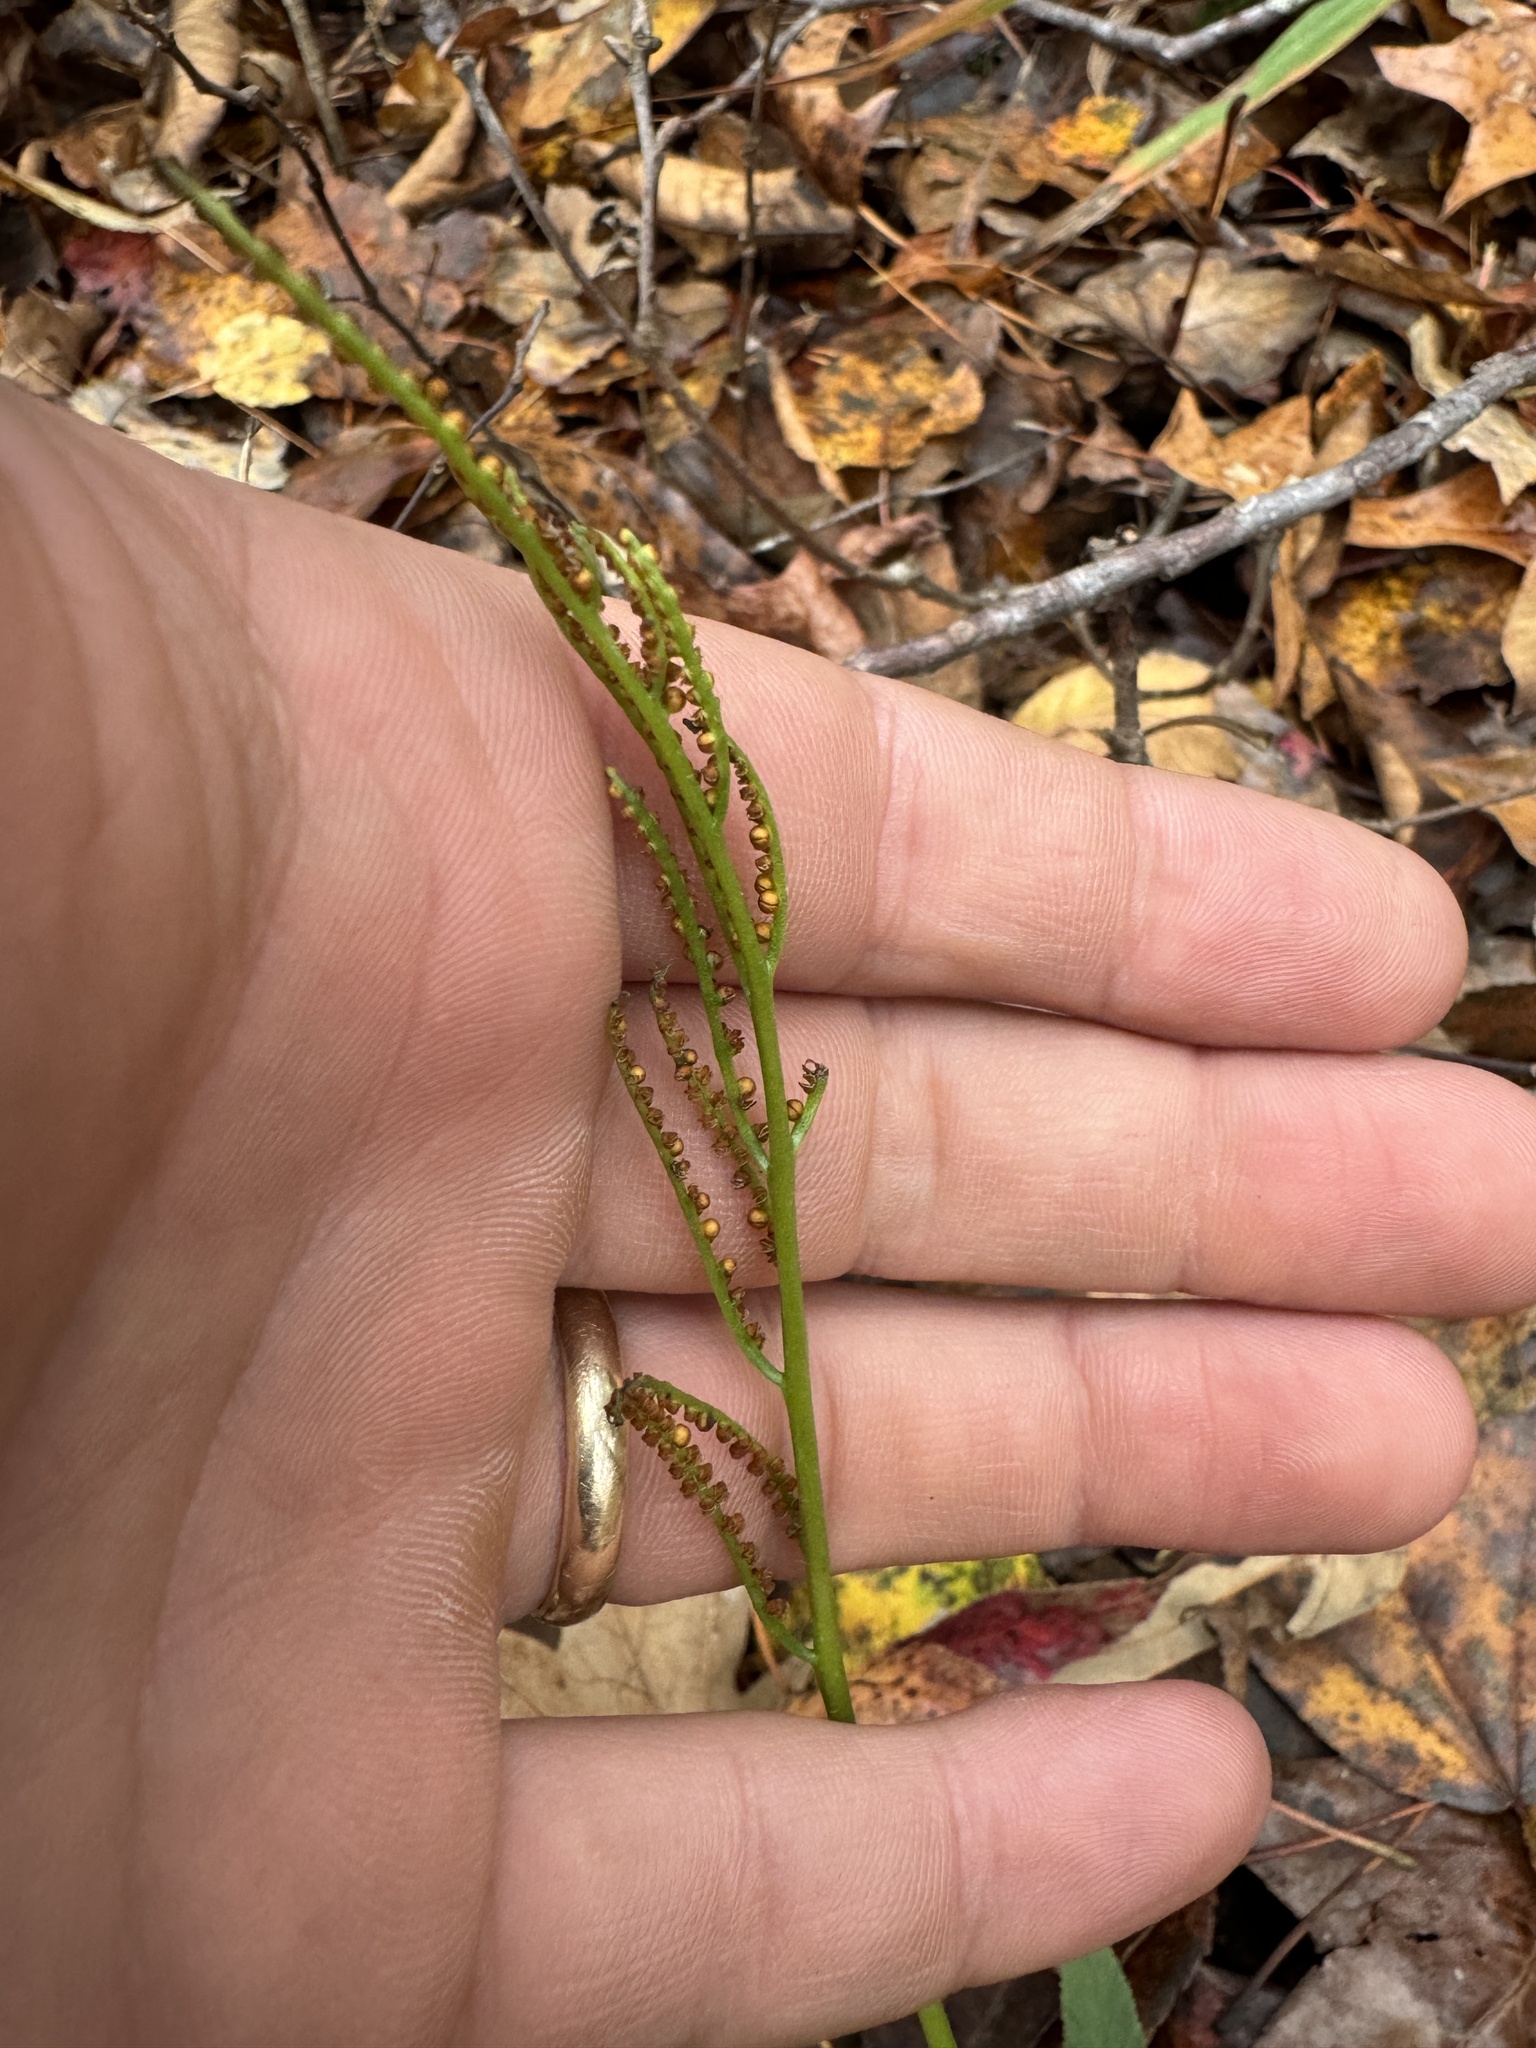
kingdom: Plantae
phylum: Tracheophyta
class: Polypodiopsida
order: Ophioglossales
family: Ophioglossaceae
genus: Sceptridium
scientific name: Sceptridium biternatum
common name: Sparse-lobed grapefern
